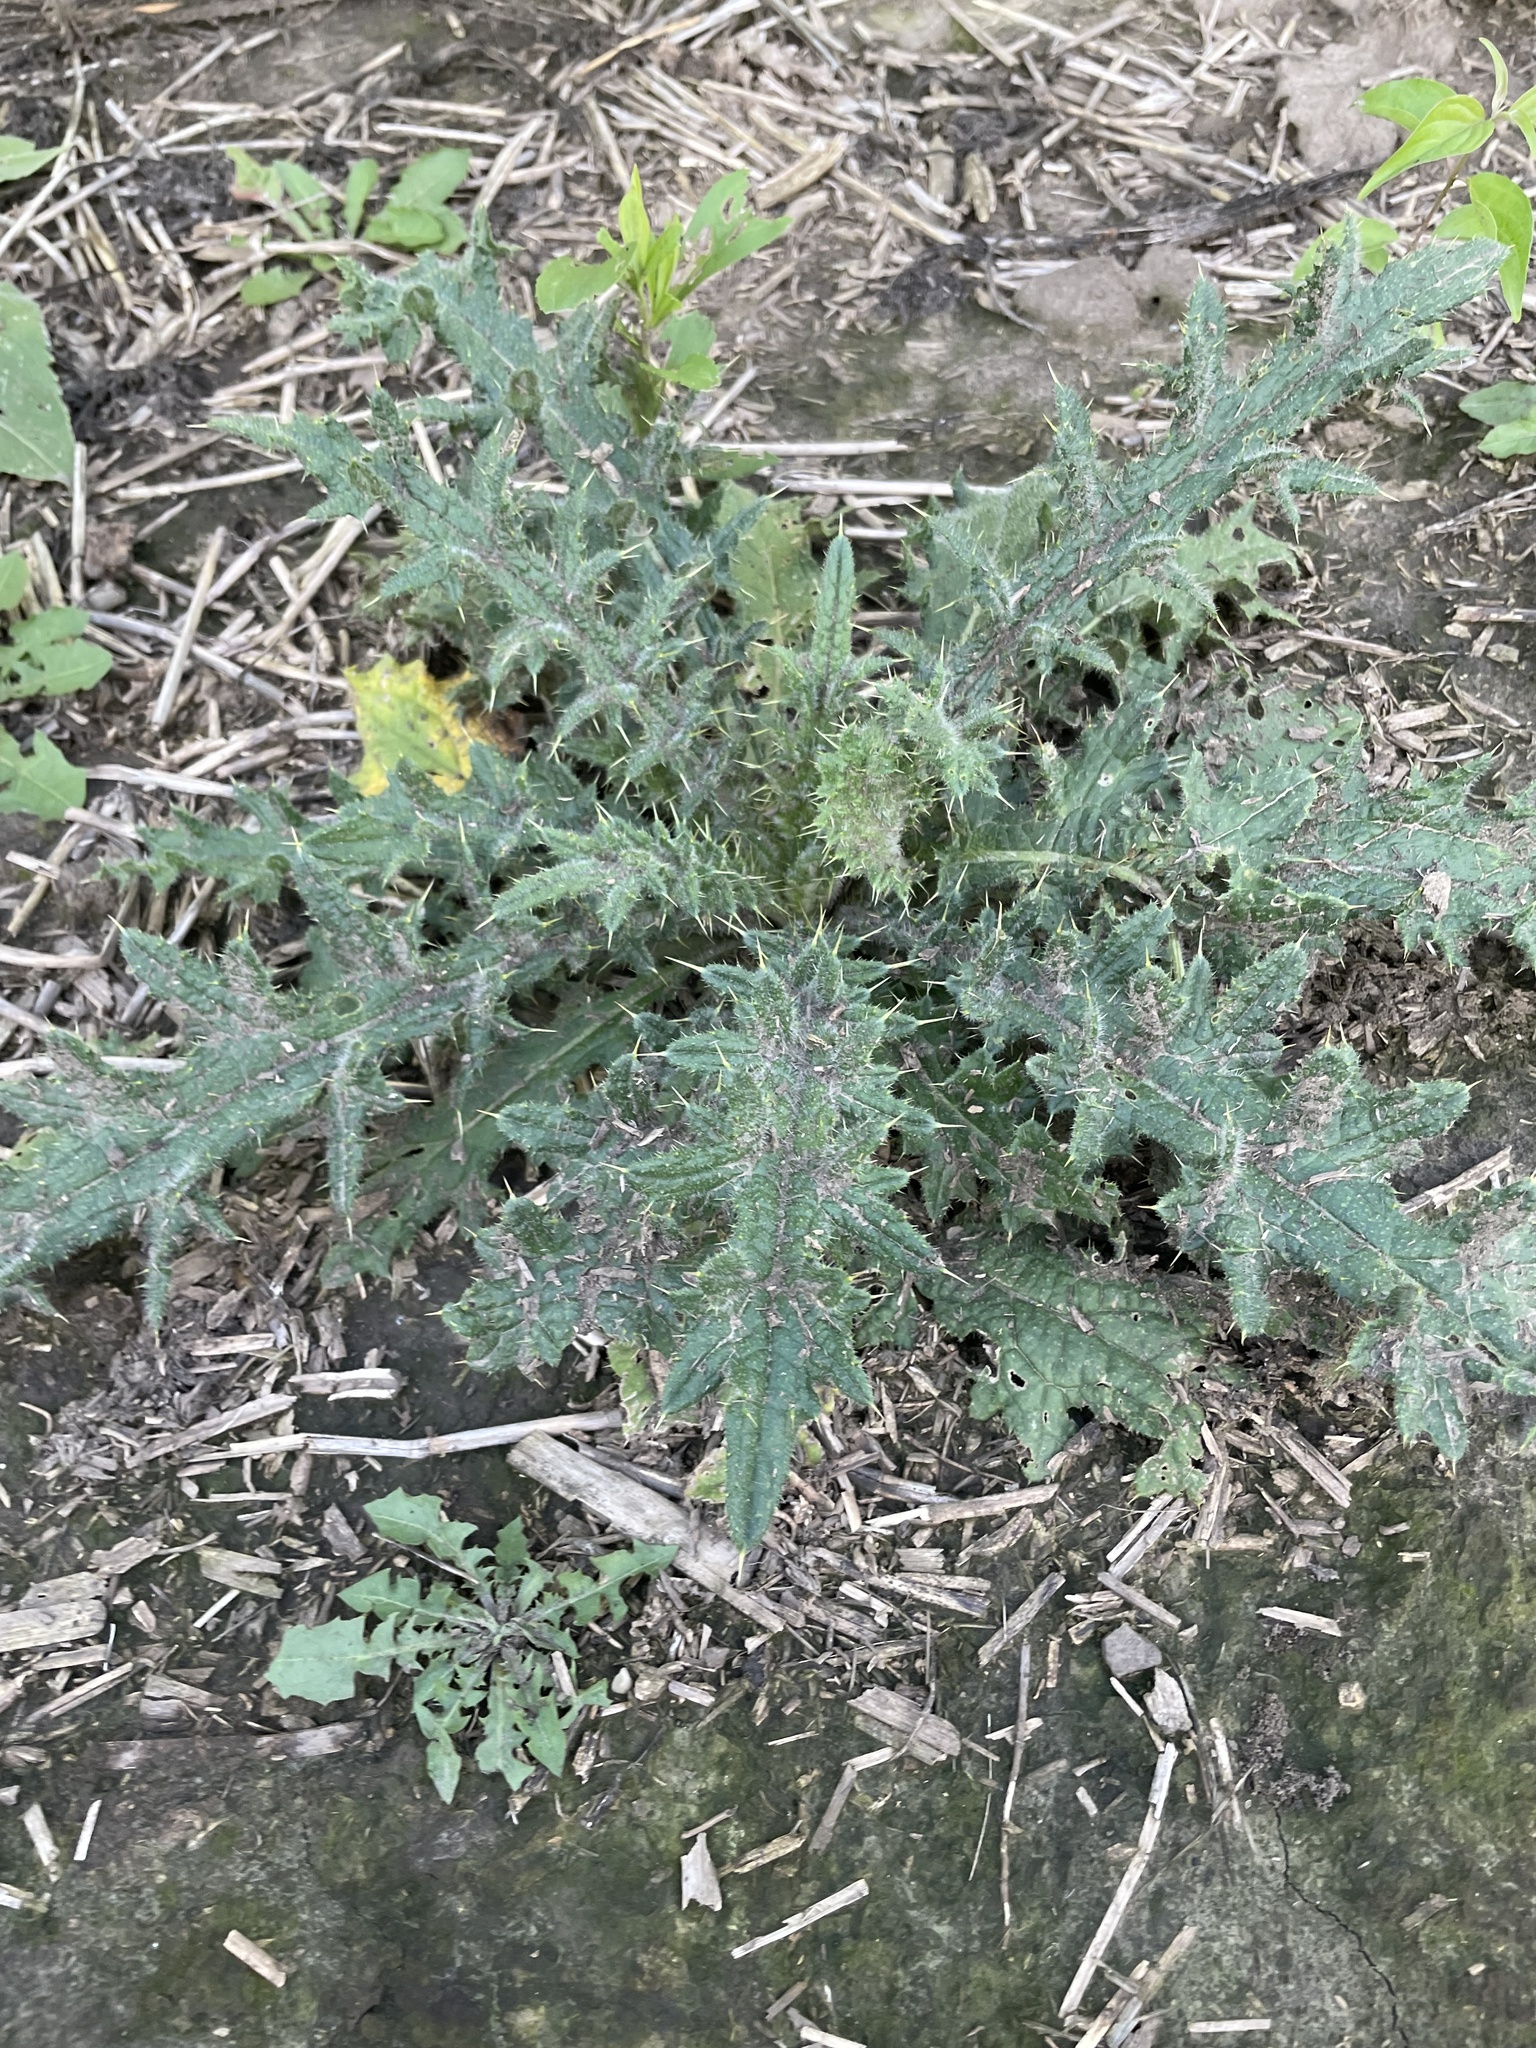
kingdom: Plantae
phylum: Tracheophyta
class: Magnoliopsida
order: Asterales
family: Asteraceae
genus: Cirsium
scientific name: Cirsium vulgare
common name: Bull thistle
